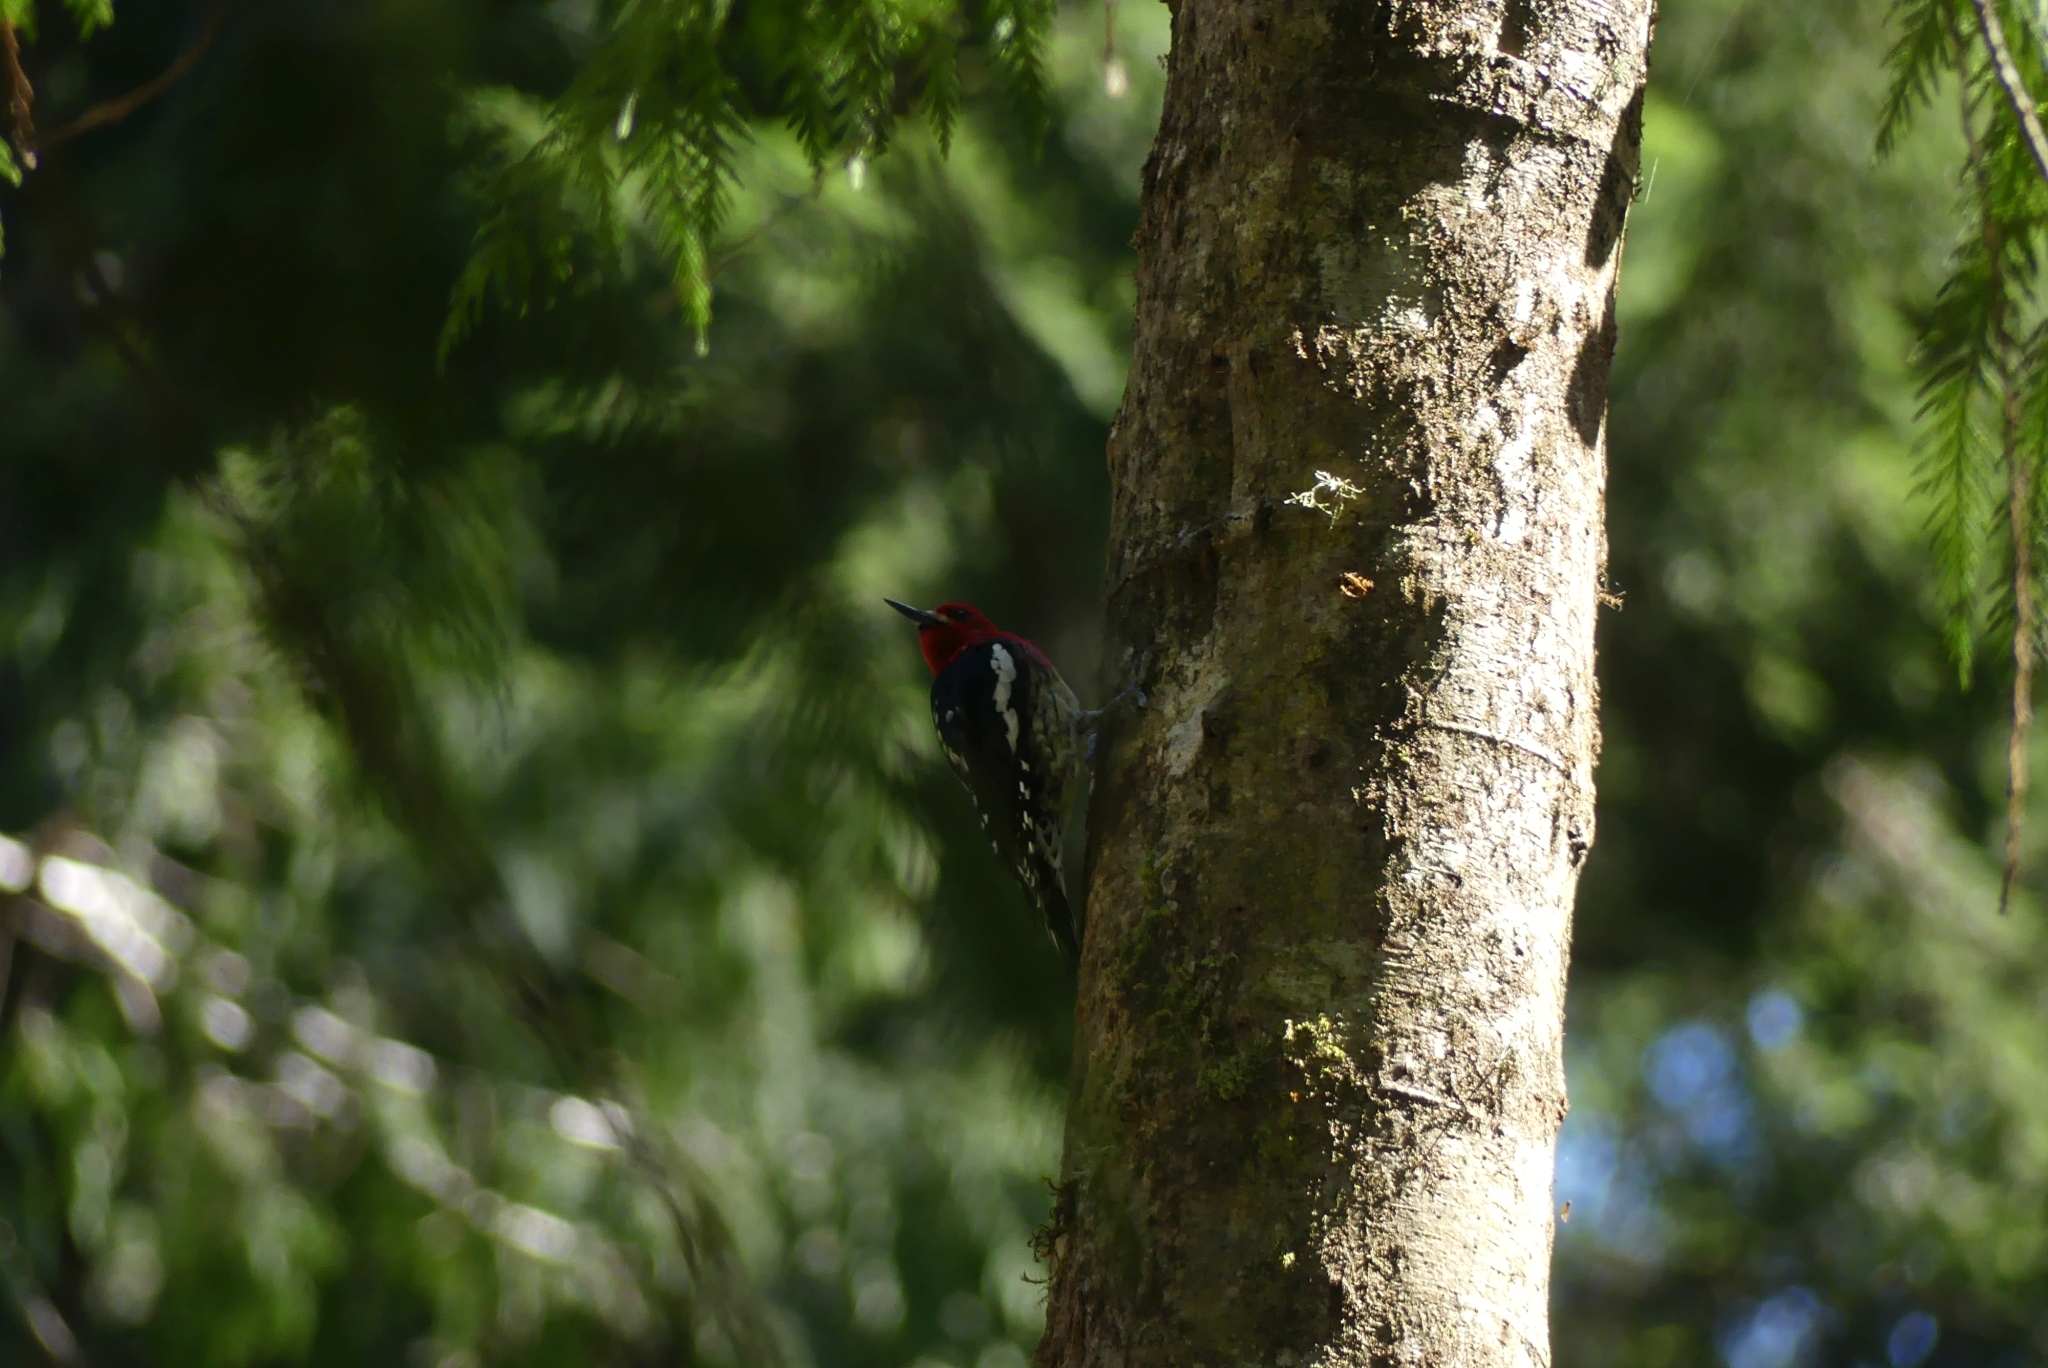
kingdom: Animalia
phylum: Chordata
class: Aves
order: Piciformes
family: Picidae
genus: Sphyrapicus
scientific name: Sphyrapicus ruber
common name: Red-breasted sapsucker
